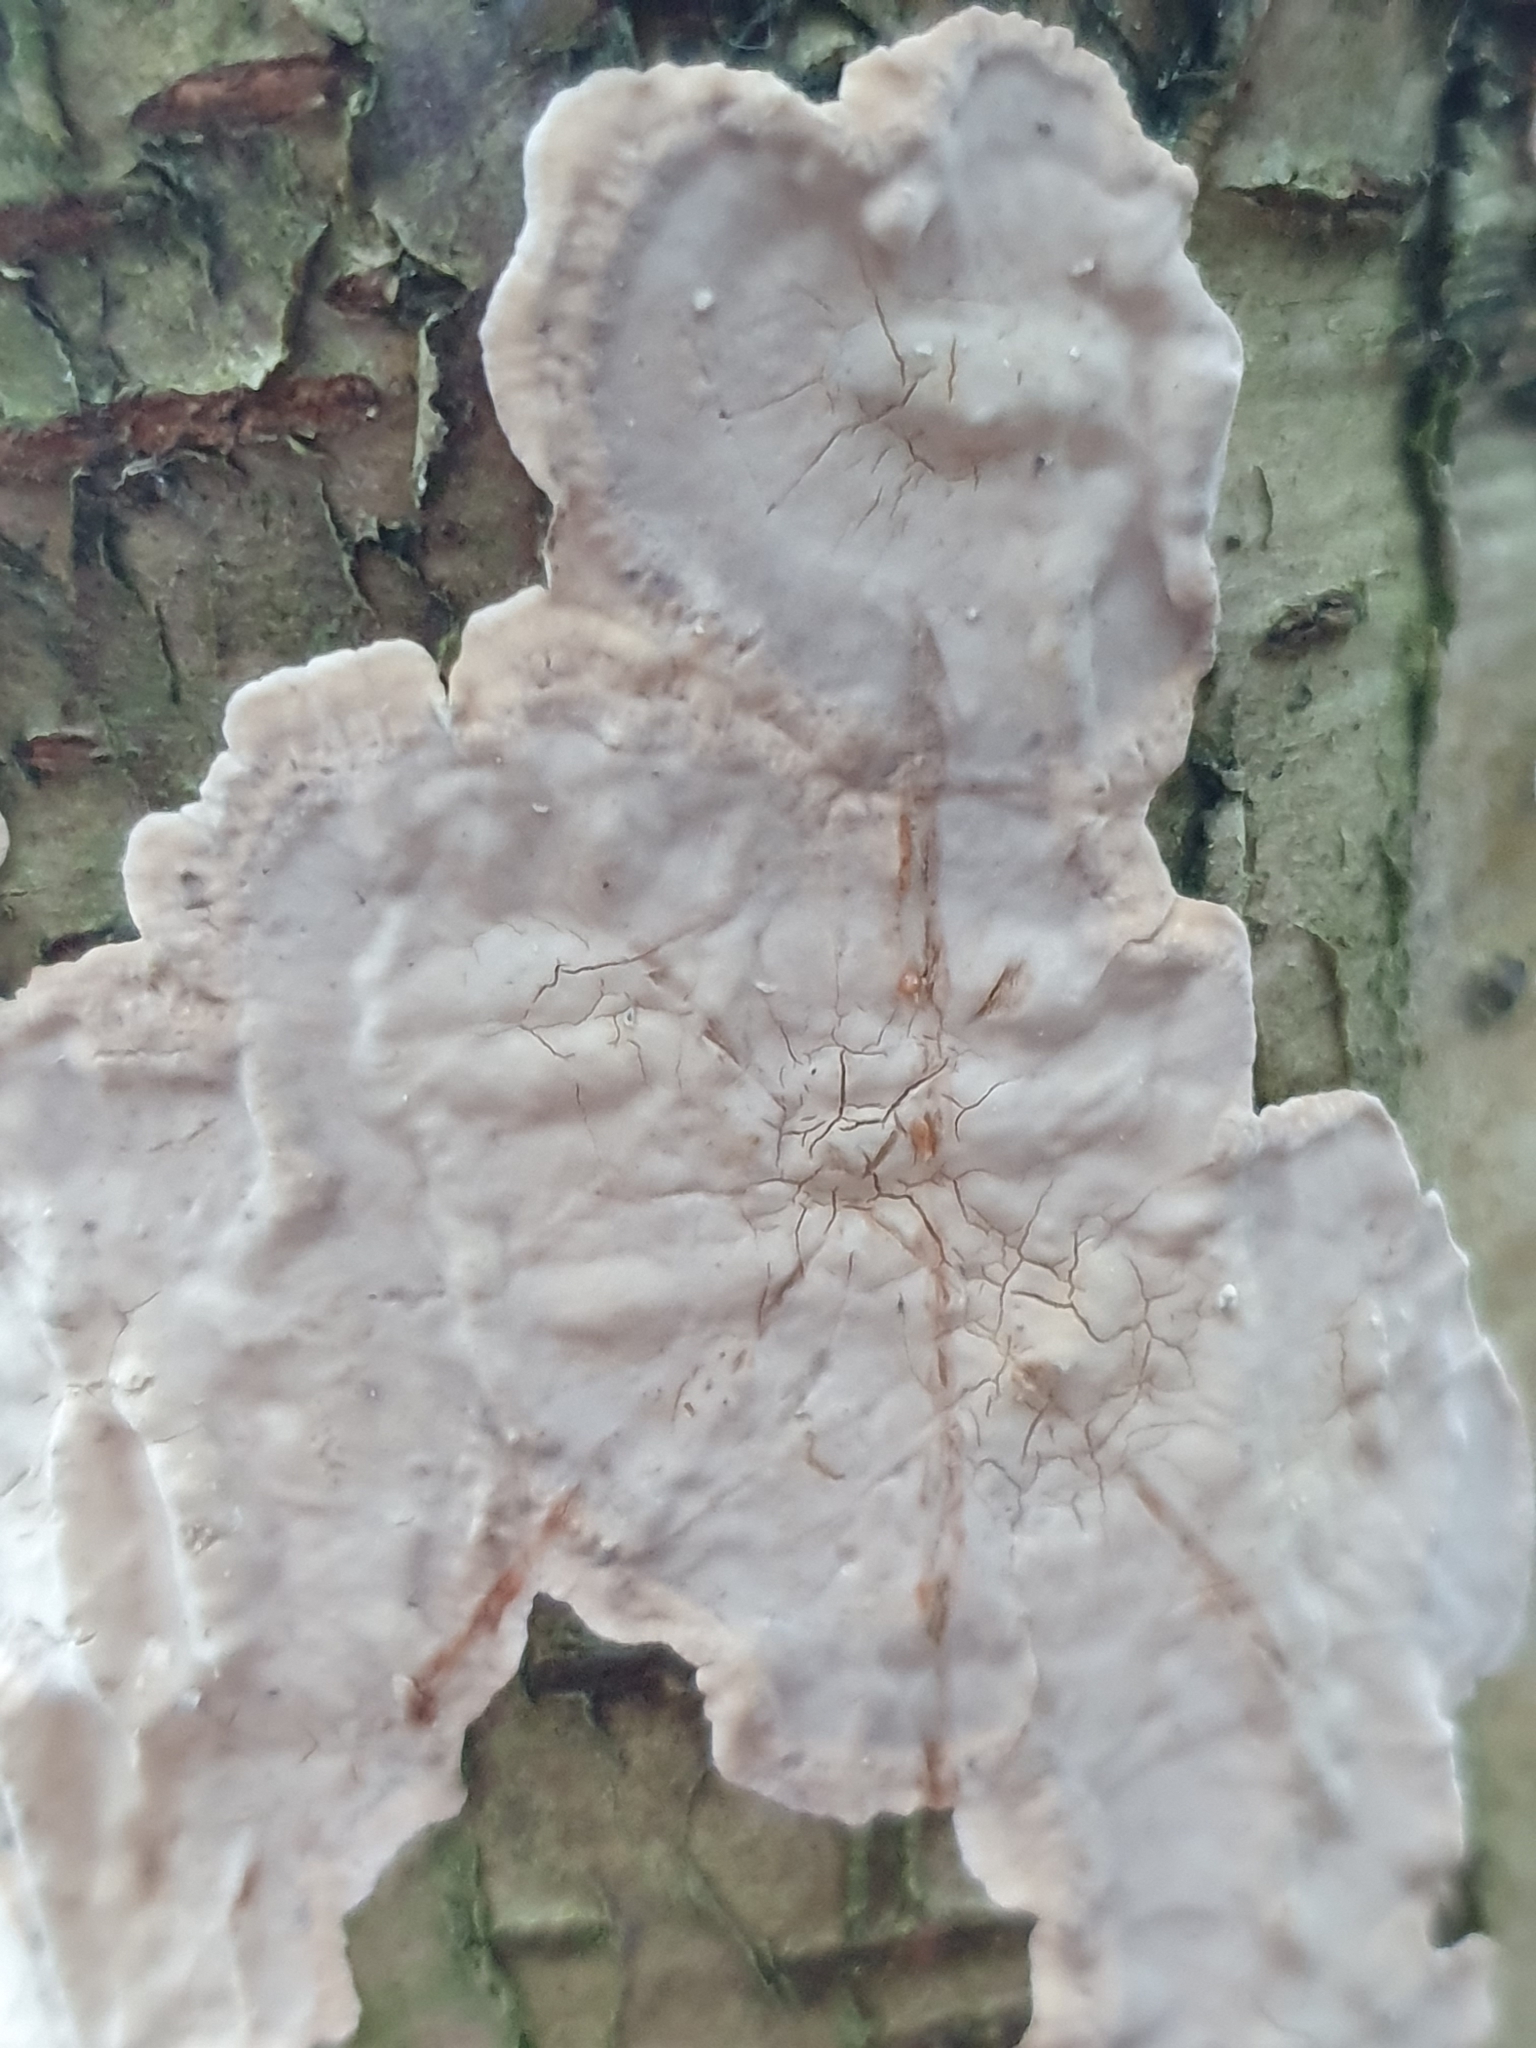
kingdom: Fungi
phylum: Basidiomycota
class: Agaricomycetes
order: Russulales
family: Stereaceae
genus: Stereum
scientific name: Stereum rugosum
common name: Bleeding broadleaf crust
